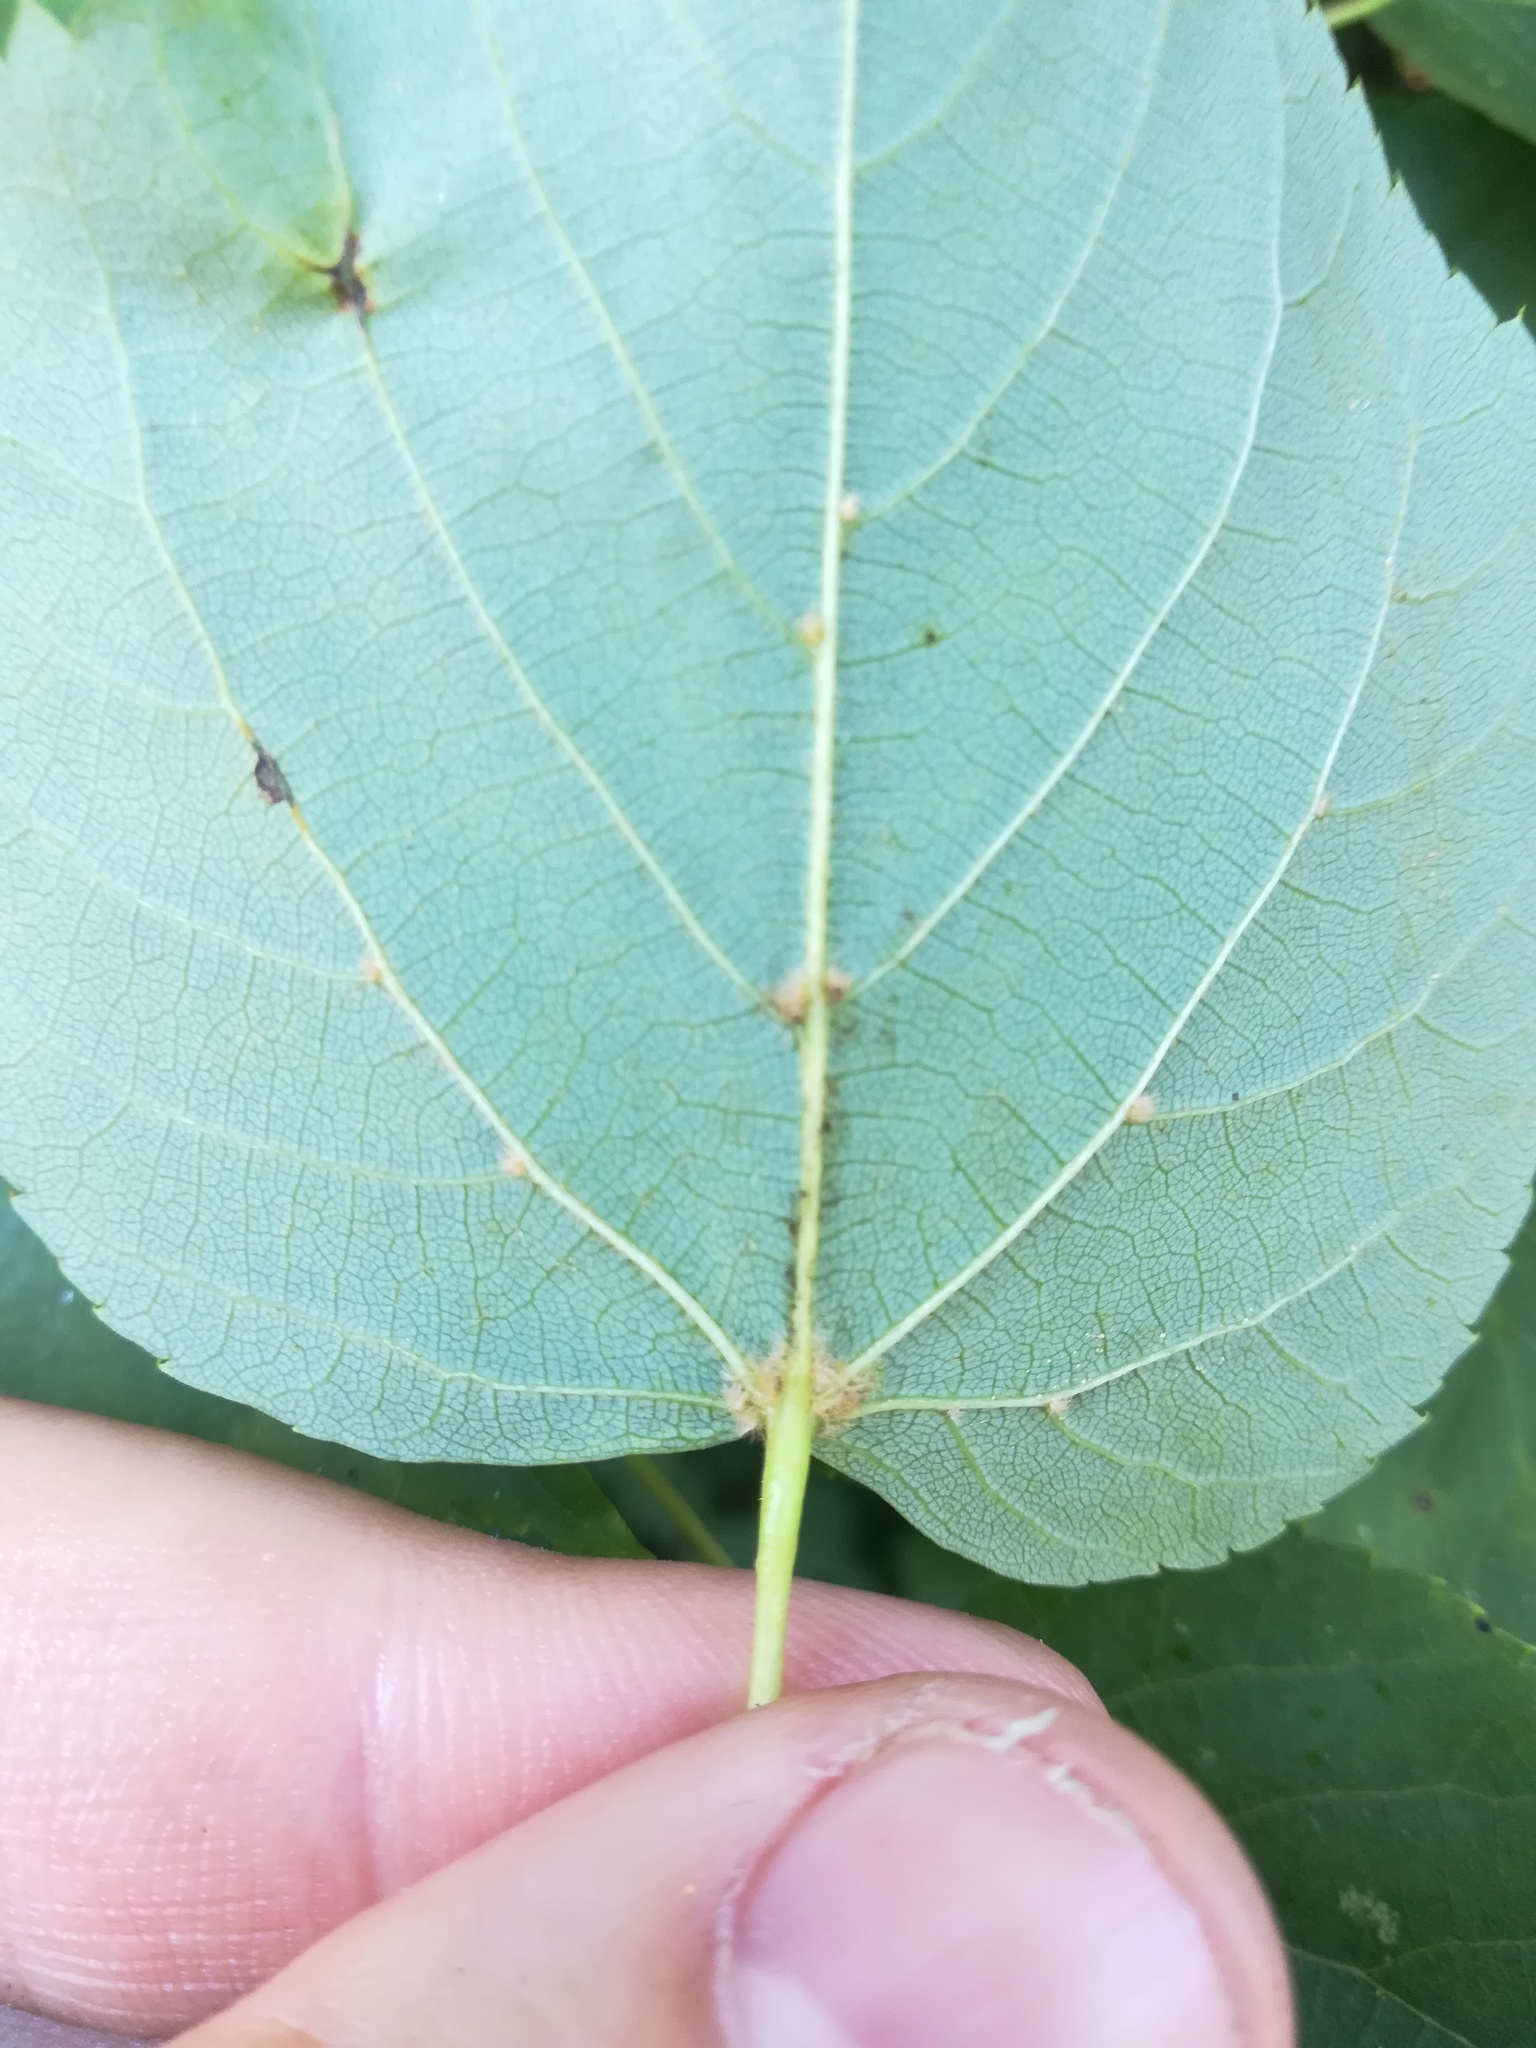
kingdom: Plantae
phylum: Tracheophyta
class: Magnoliopsida
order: Malvales
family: Malvaceae
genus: Tilia
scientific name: Tilia cordata
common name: Small-leaved lime
